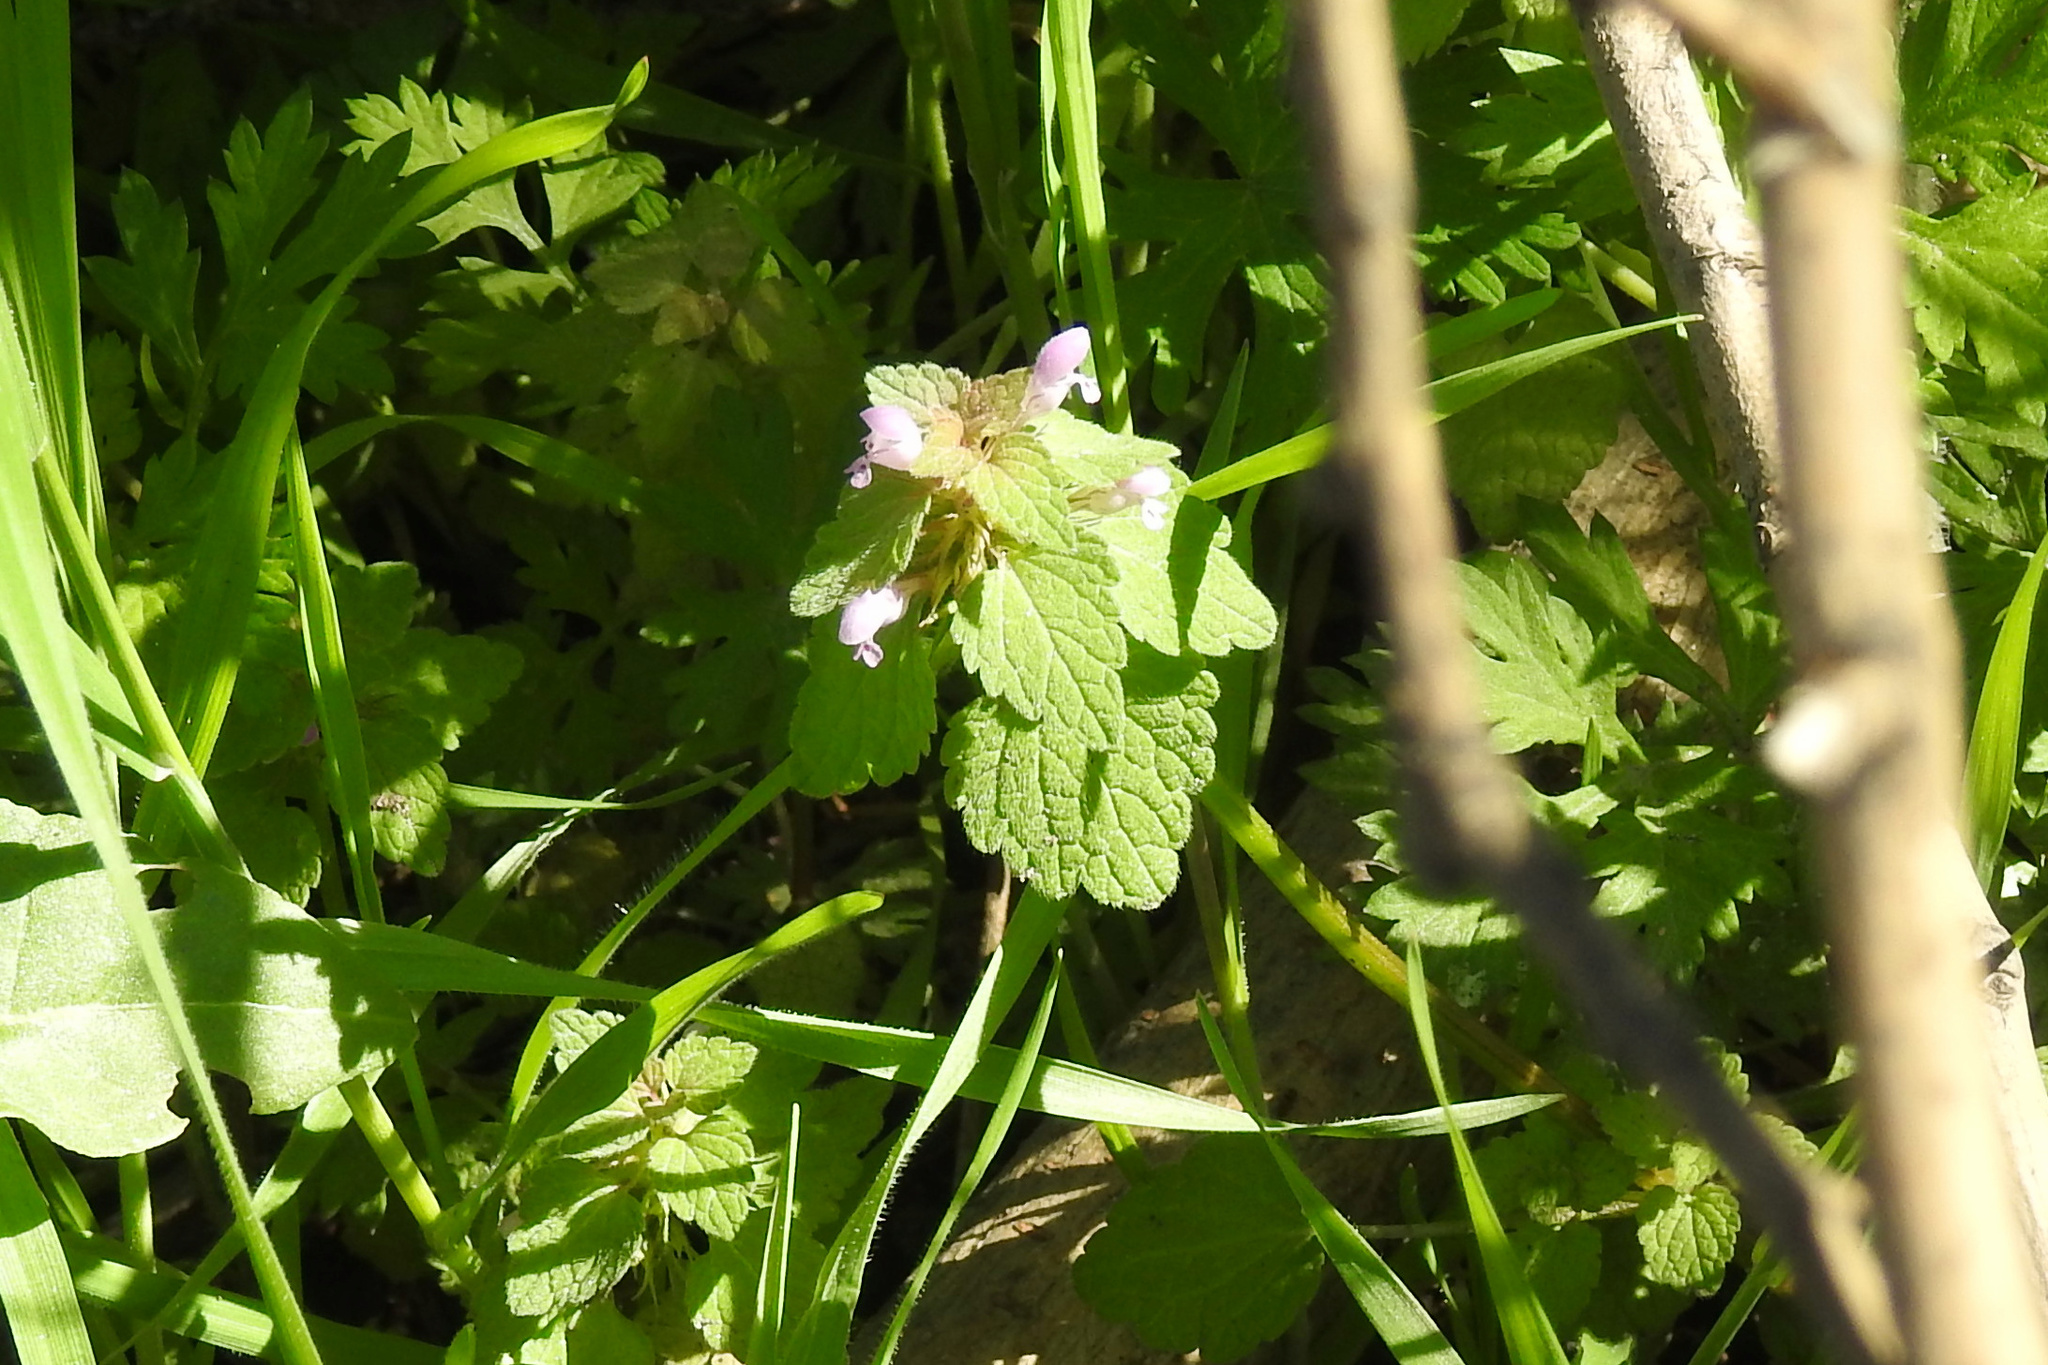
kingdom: Plantae
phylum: Tracheophyta
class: Magnoliopsida
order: Lamiales
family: Lamiaceae
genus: Lamium
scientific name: Lamium purpureum
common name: Red dead-nettle
